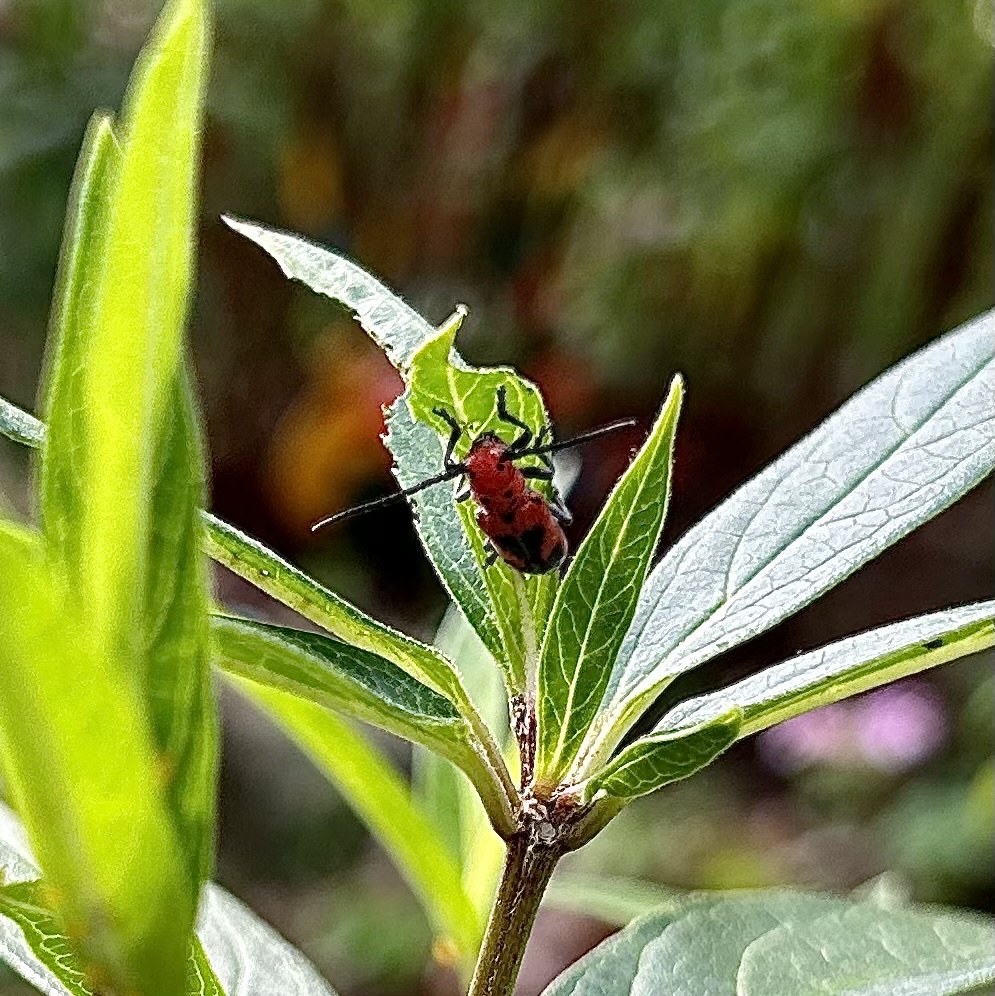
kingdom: Animalia
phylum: Arthropoda
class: Insecta
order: Coleoptera
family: Cerambycidae
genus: Tetraopes
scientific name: Tetraopes melanurus
